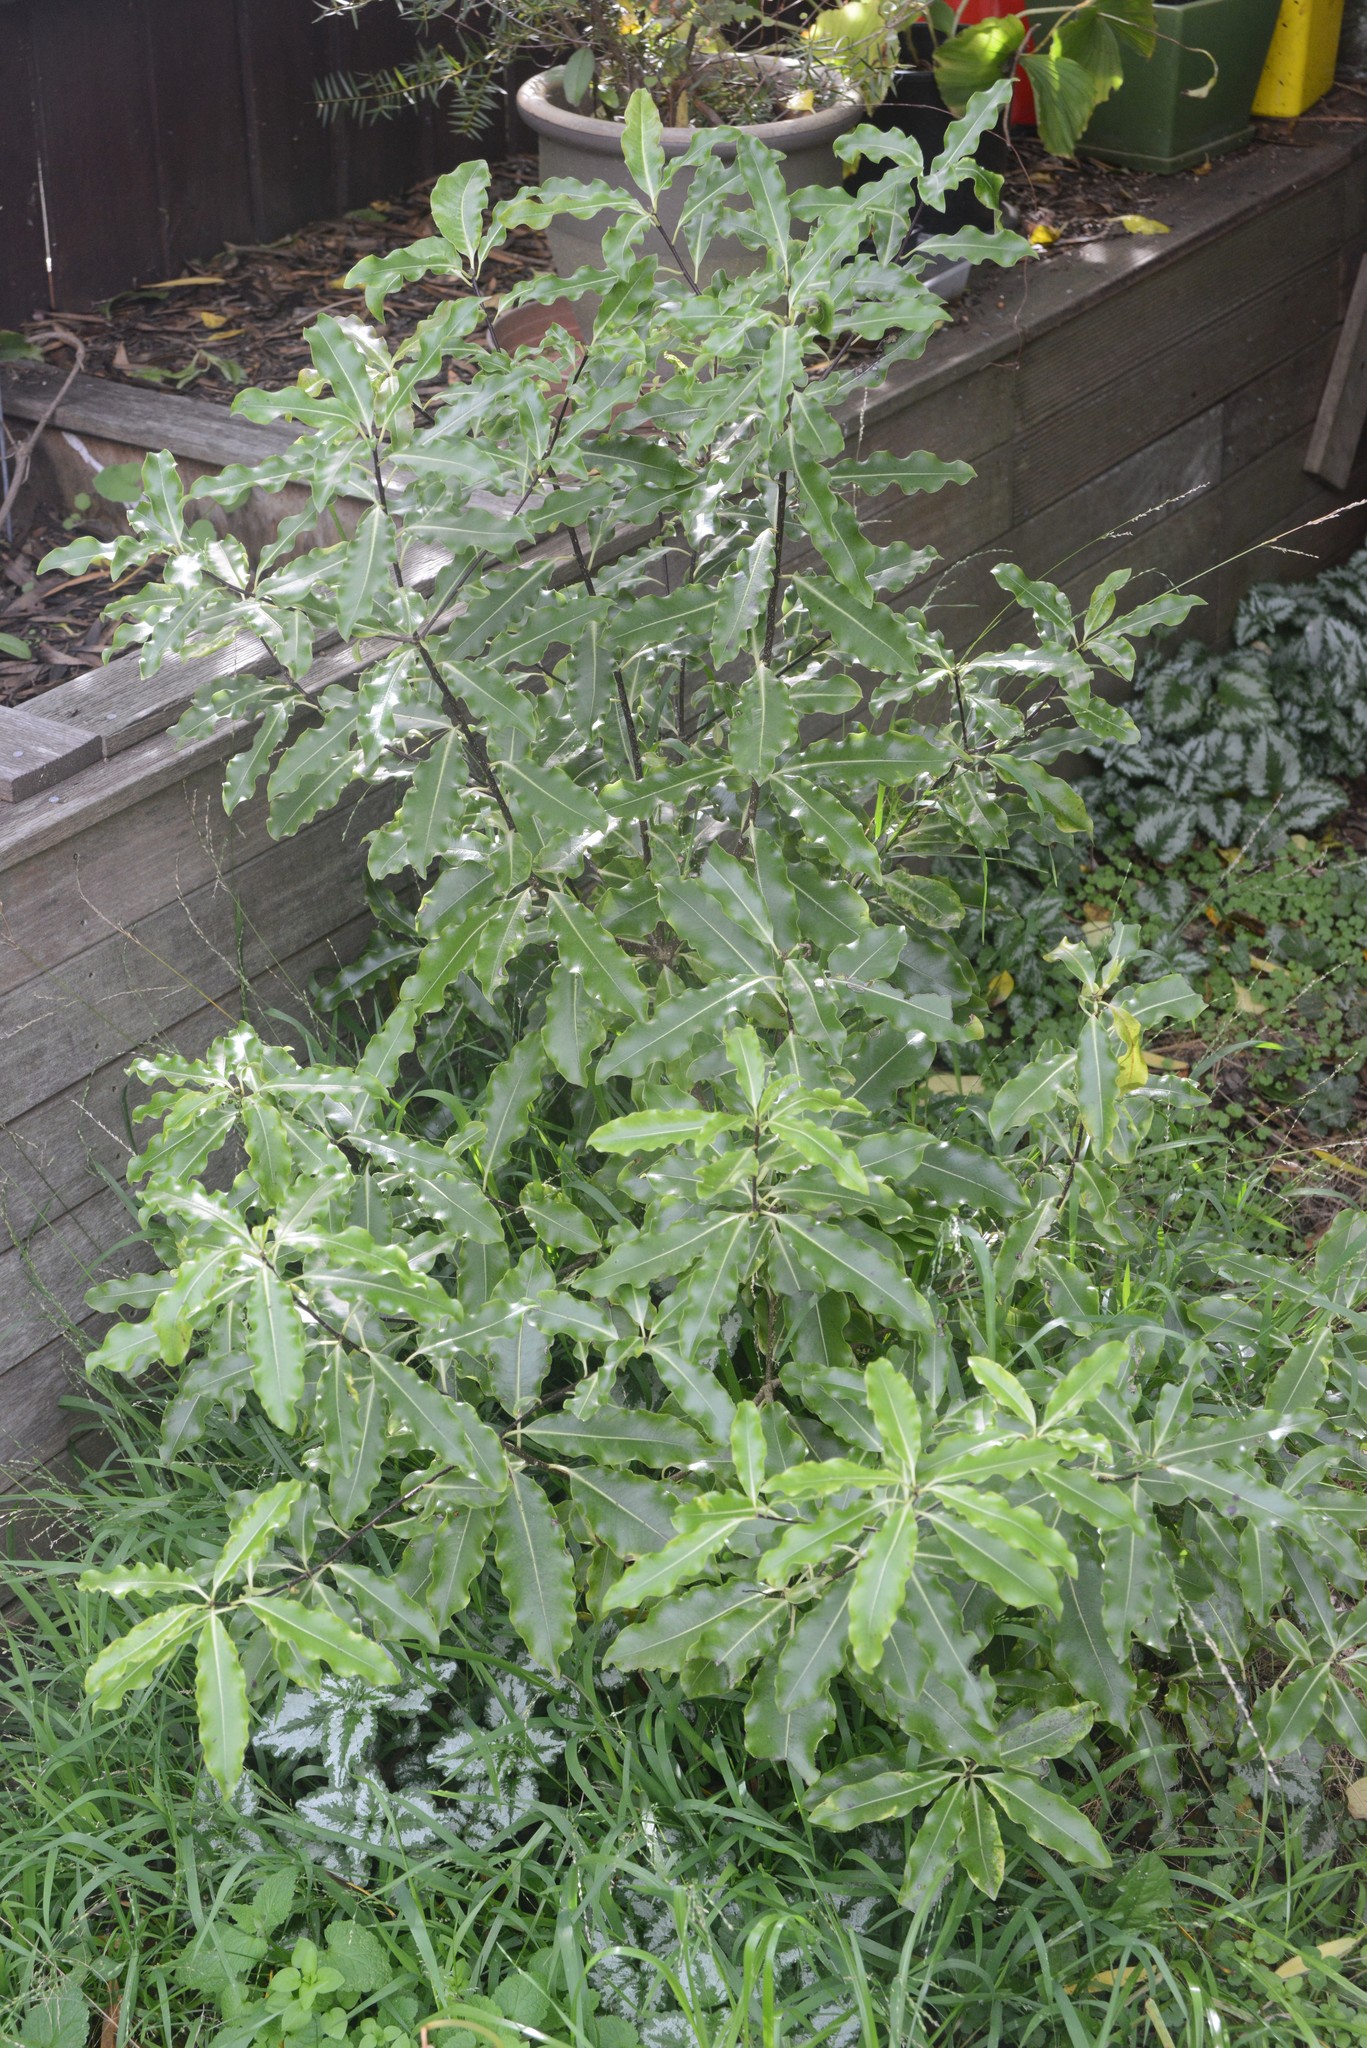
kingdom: Plantae
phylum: Tracheophyta
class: Magnoliopsida
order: Apiales
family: Pittosporaceae
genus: Pittosporum
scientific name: Pittosporum eugenioides
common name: Lemonwood
